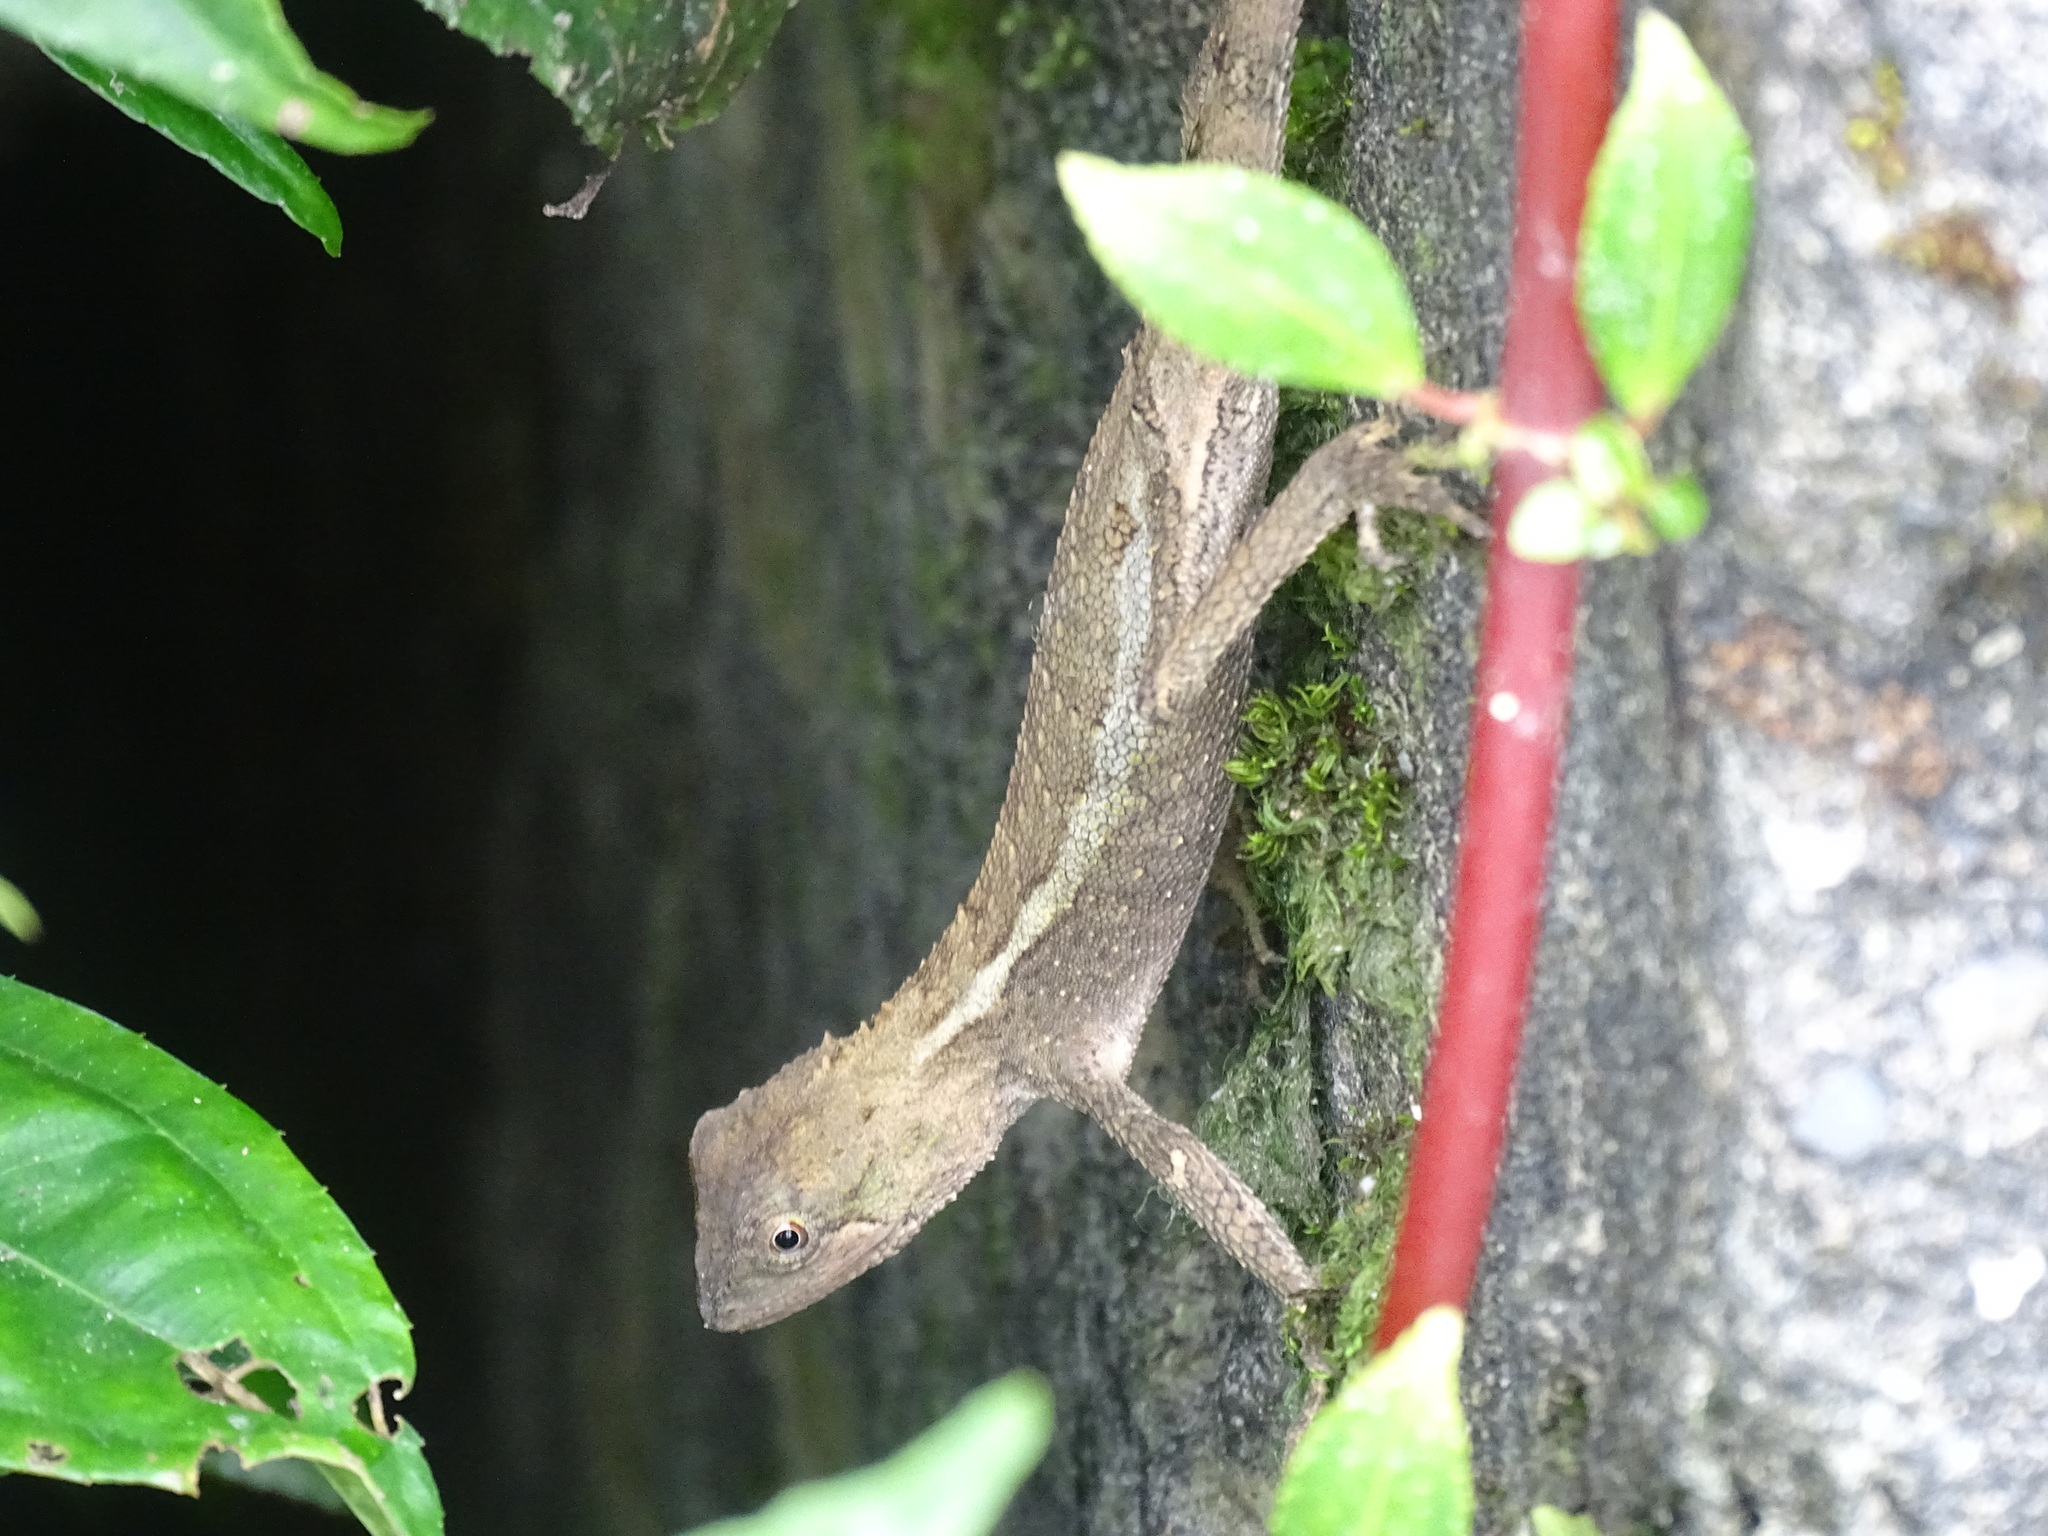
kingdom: Animalia
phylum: Chordata
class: Squamata
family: Agamidae
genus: Diploderma
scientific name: Diploderma swinhonis
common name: Taiwan japalure
